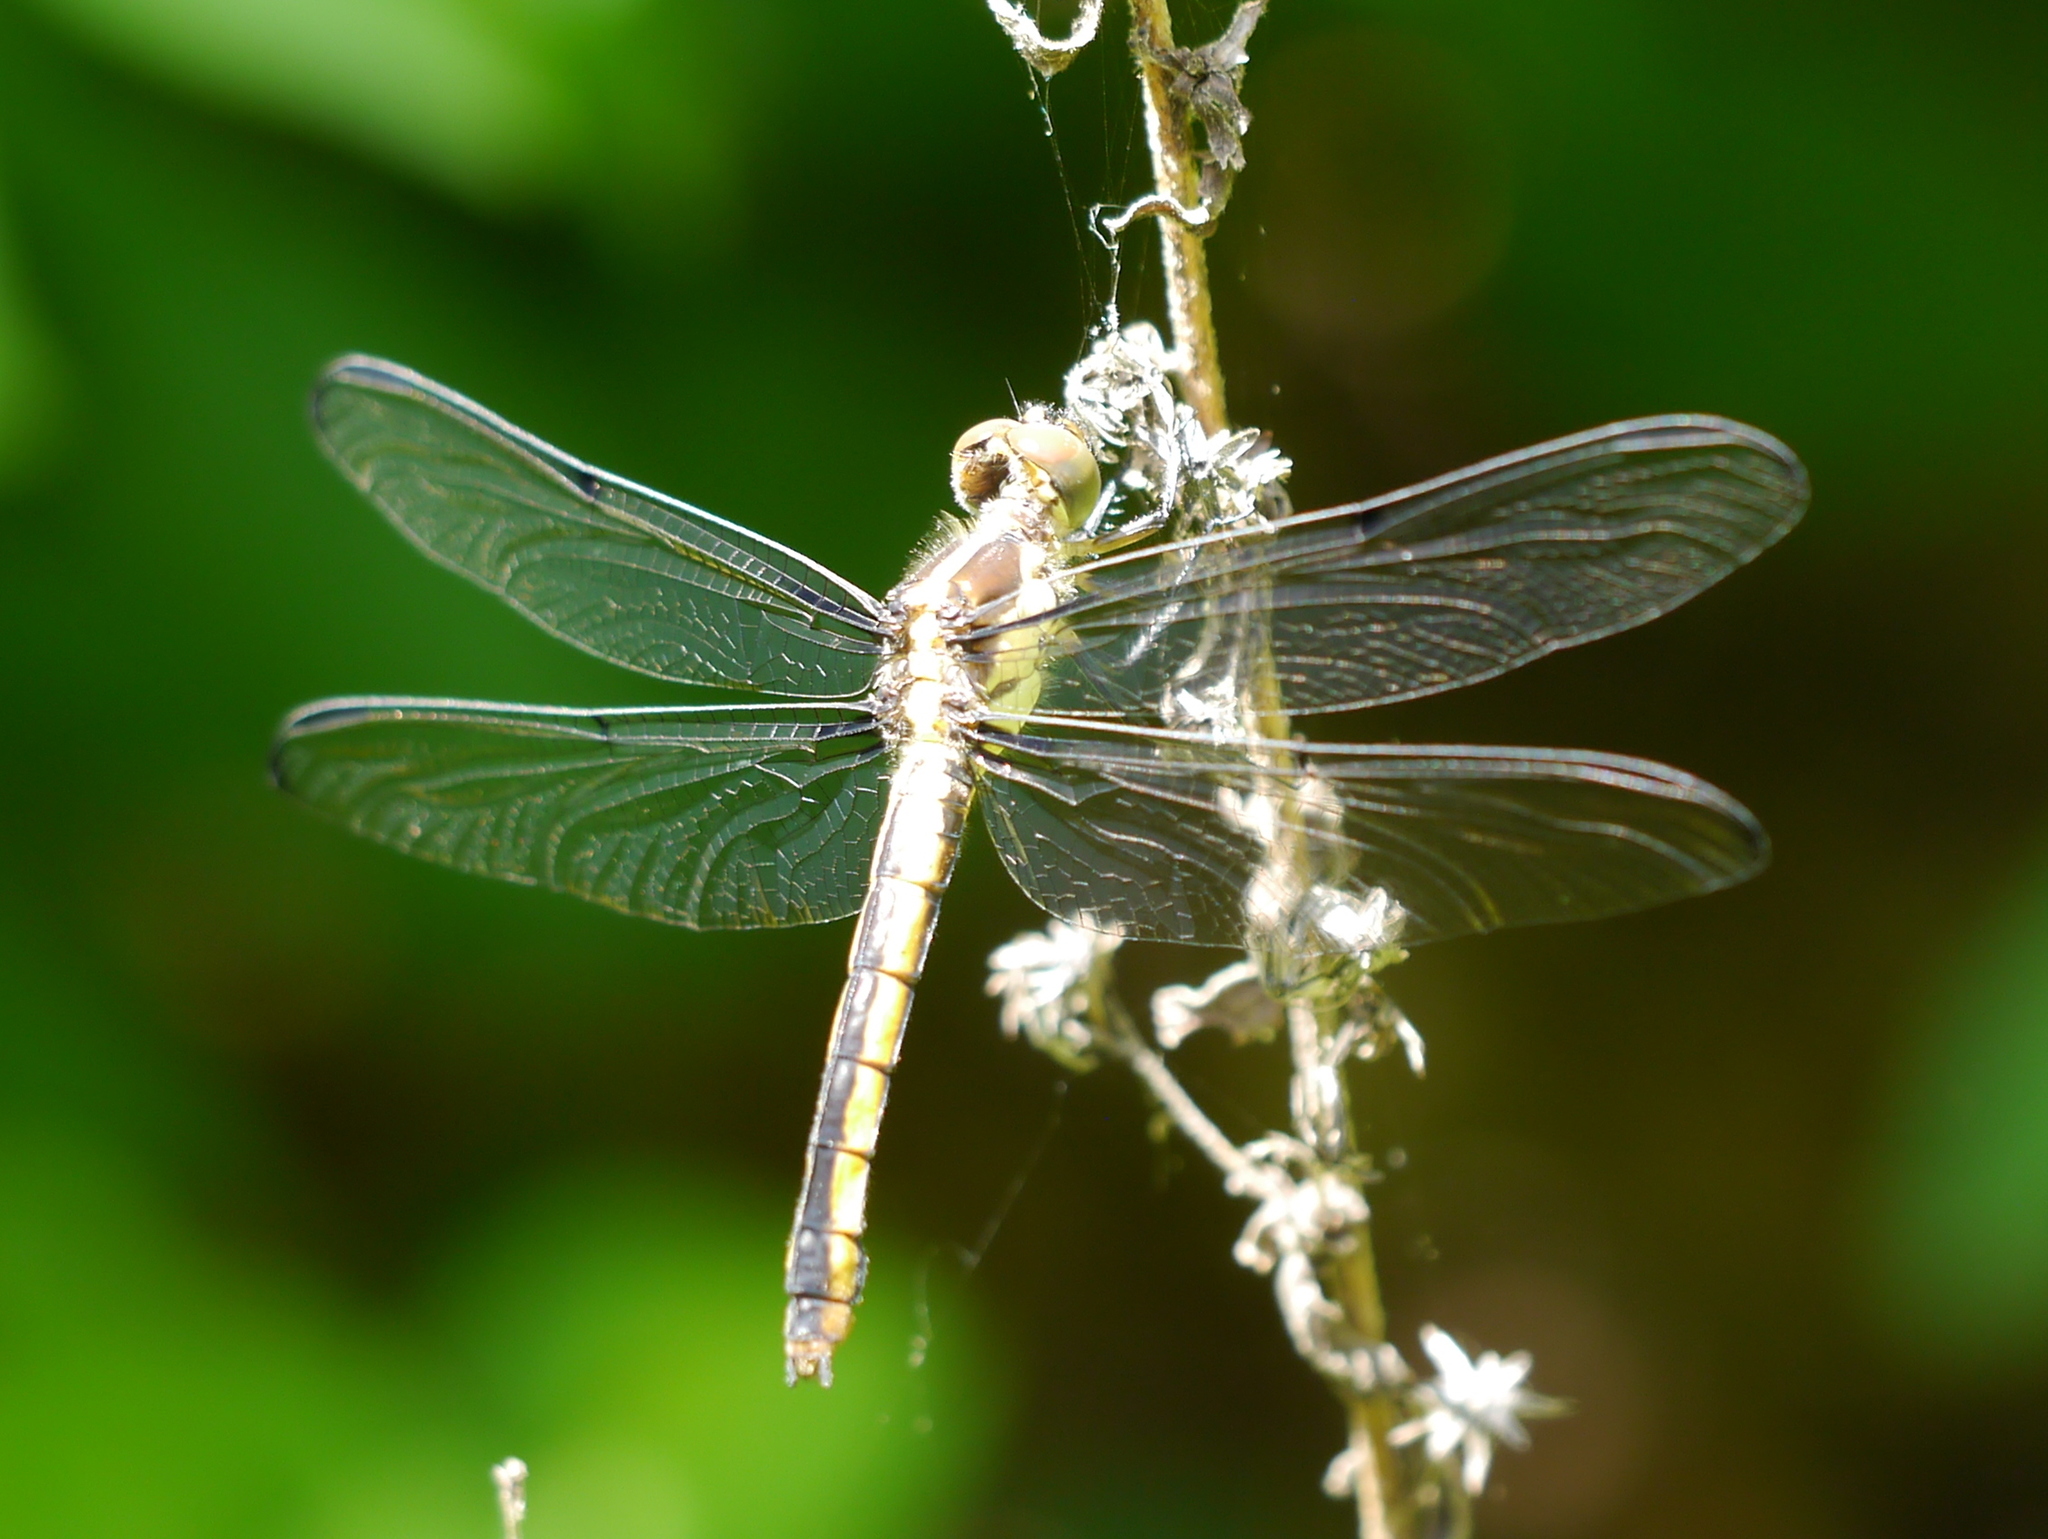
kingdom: Animalia
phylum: Arthropoda
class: Insecta
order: Odonata
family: Libellulidae
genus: Libellula
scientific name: Libellula incesta
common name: Slaty skimmer
